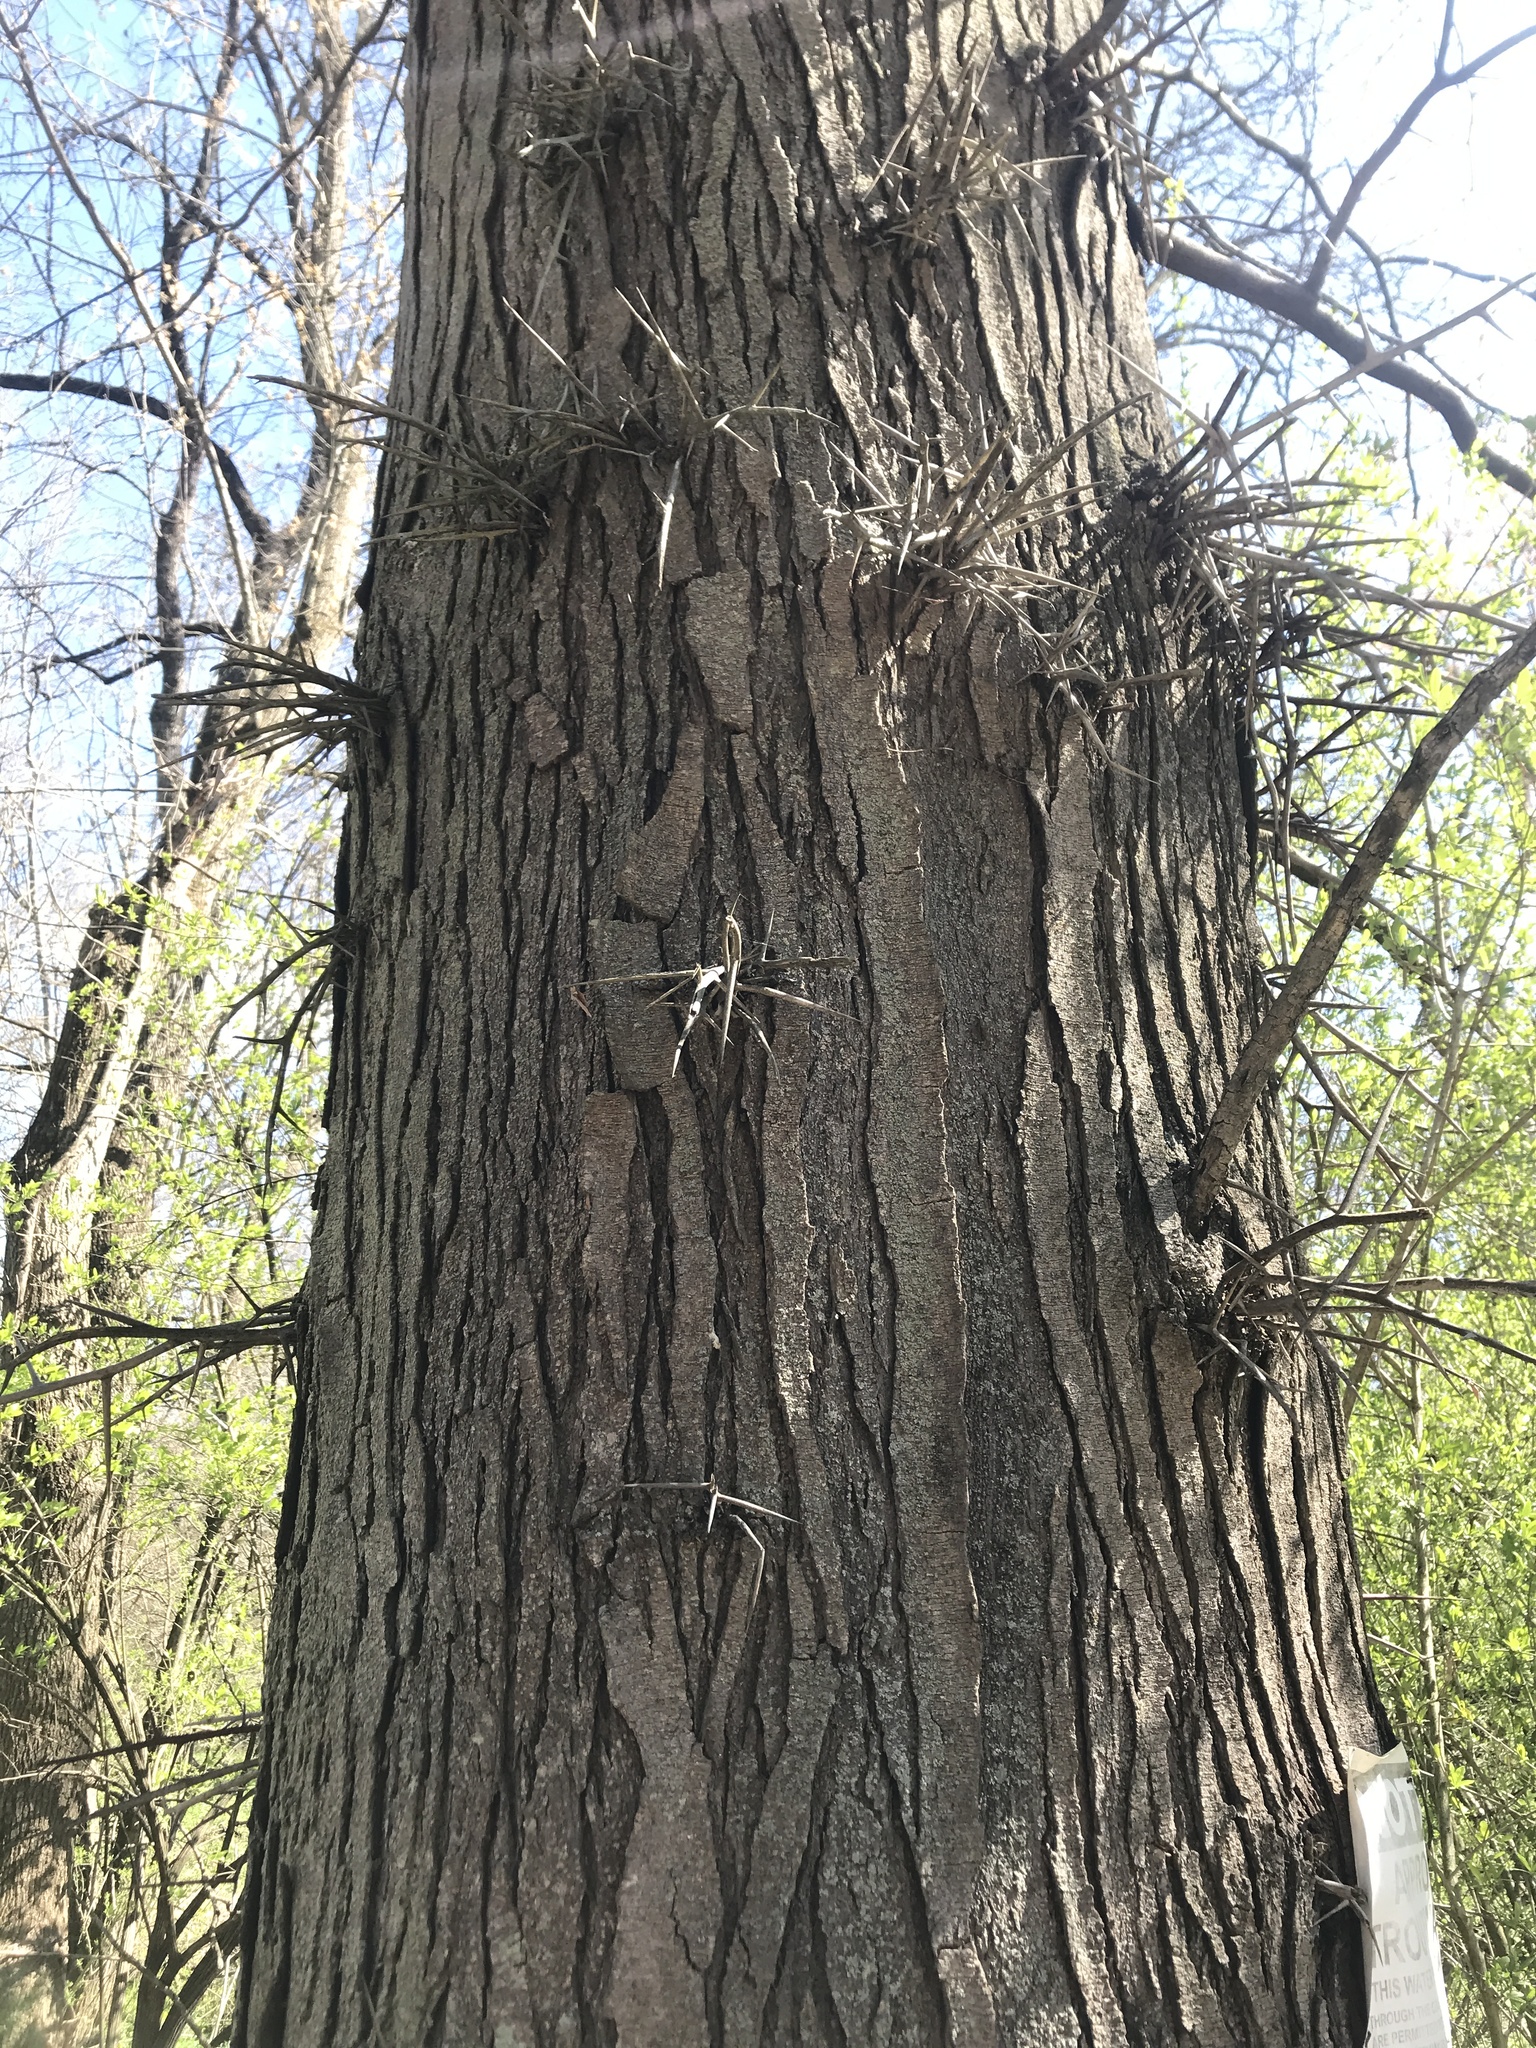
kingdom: Plantae
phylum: Tracheophyta
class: Magnoliopsida
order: Fabales
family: Fabaceae
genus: Gleditsia
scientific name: Gleditsia triacanthos
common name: Common honeylocust
